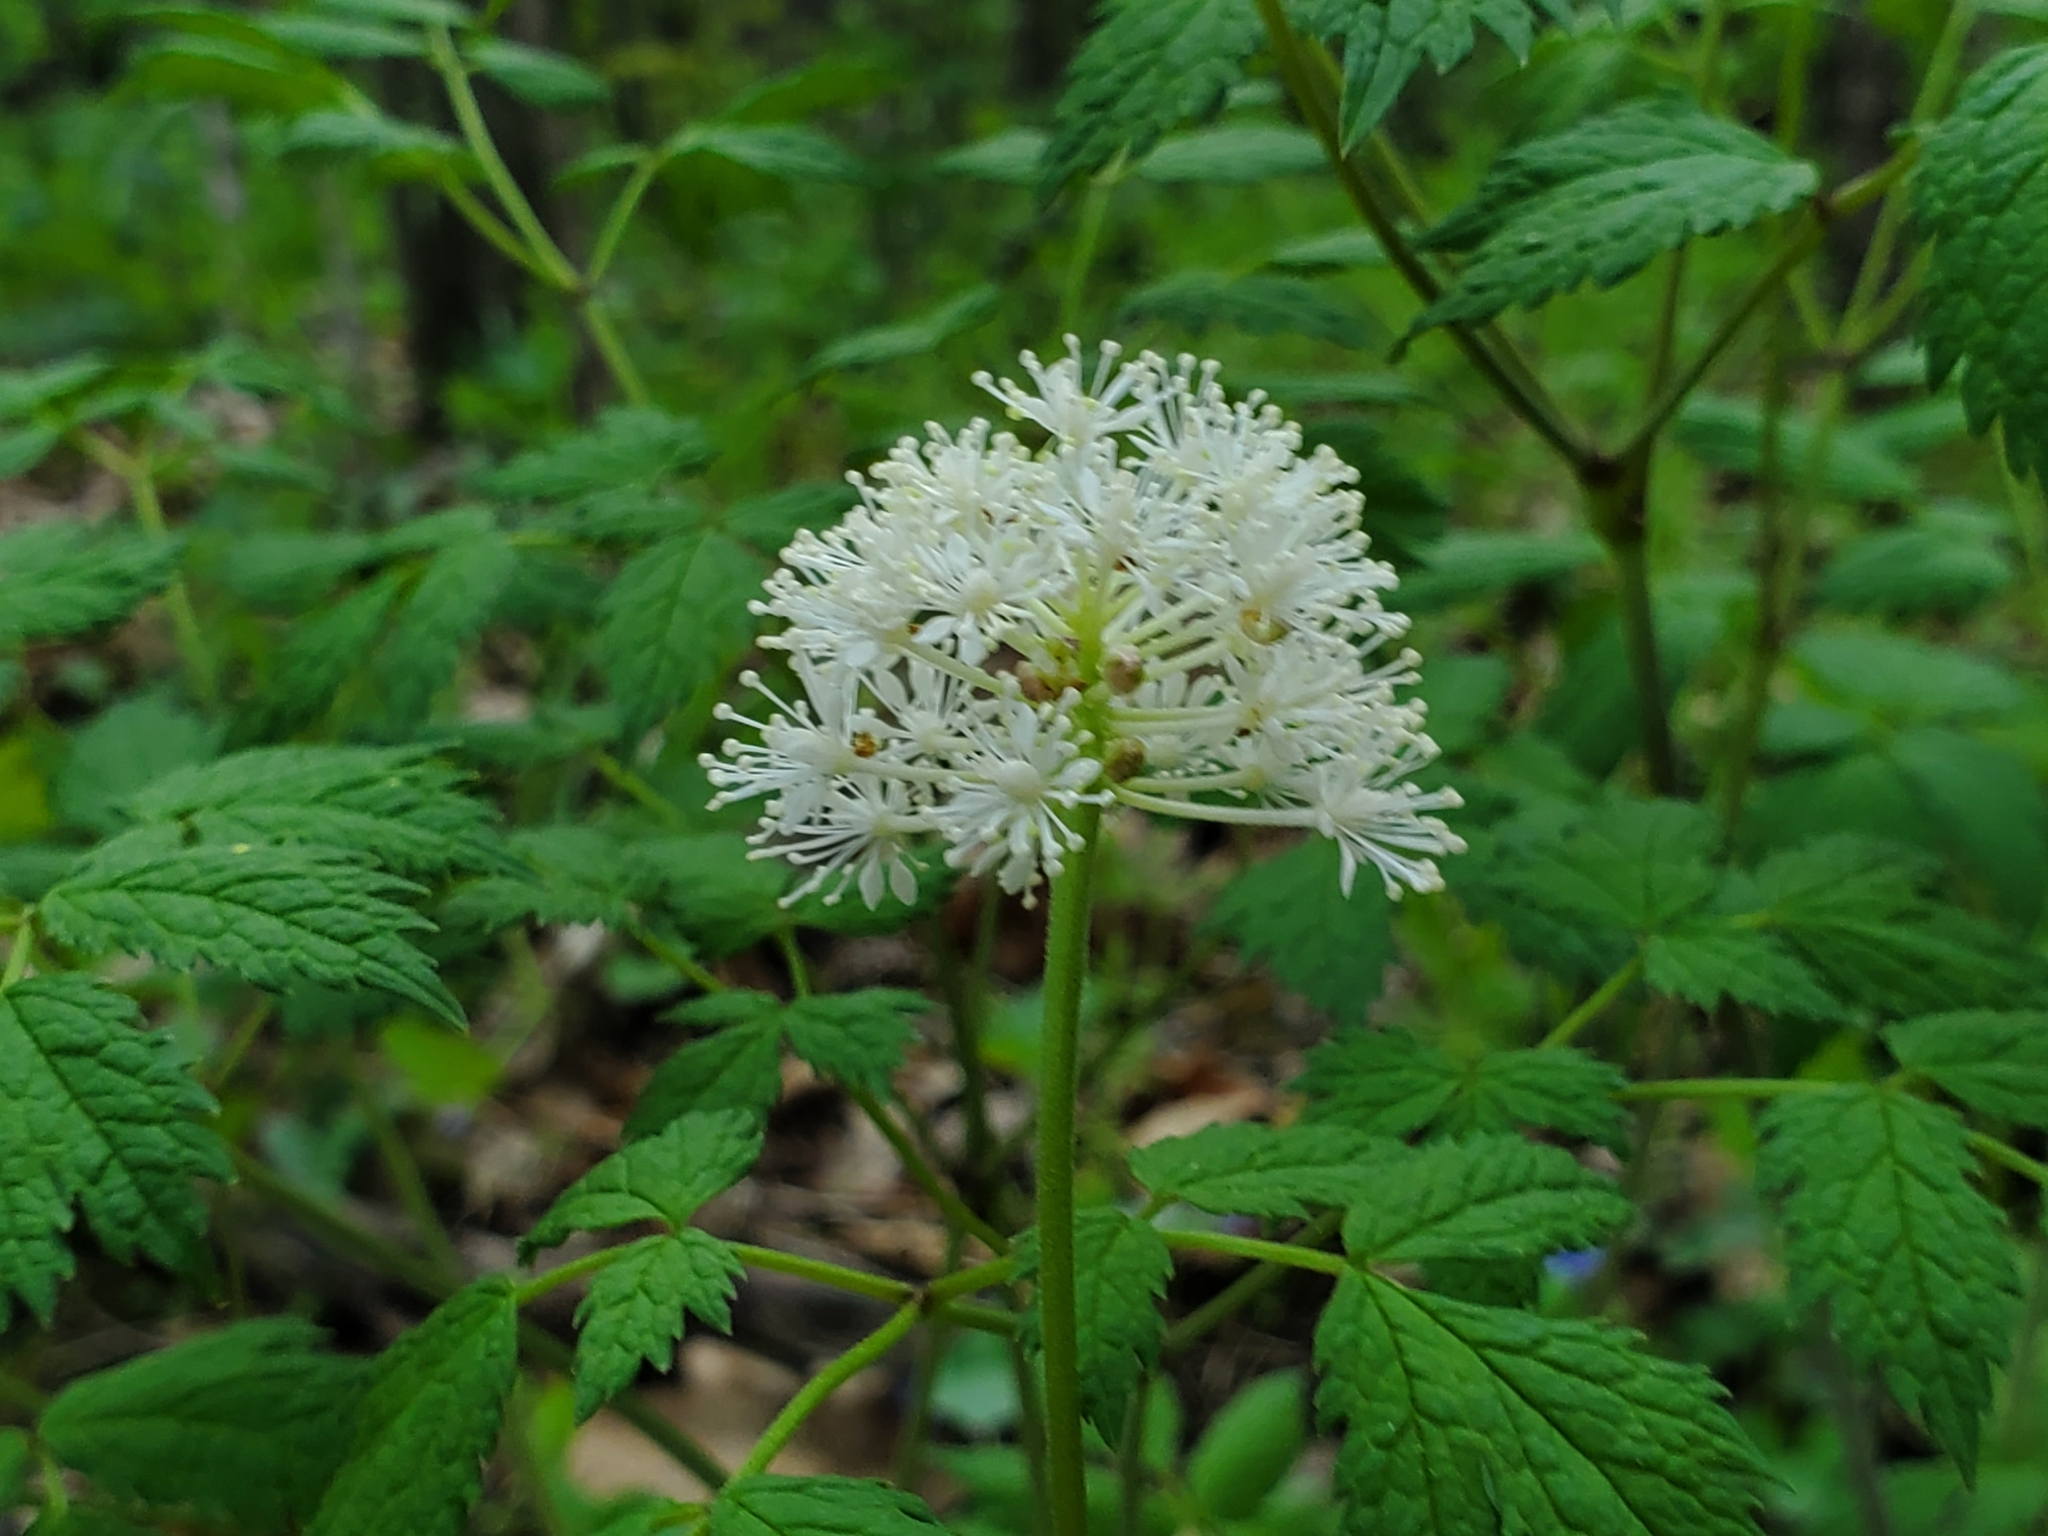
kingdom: Plantae
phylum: Tracheophyta
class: Magnoliopsida
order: Ranunculales
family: Ranunculaceae
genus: Actaea
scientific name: Actaea rubra
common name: Red baneberry
